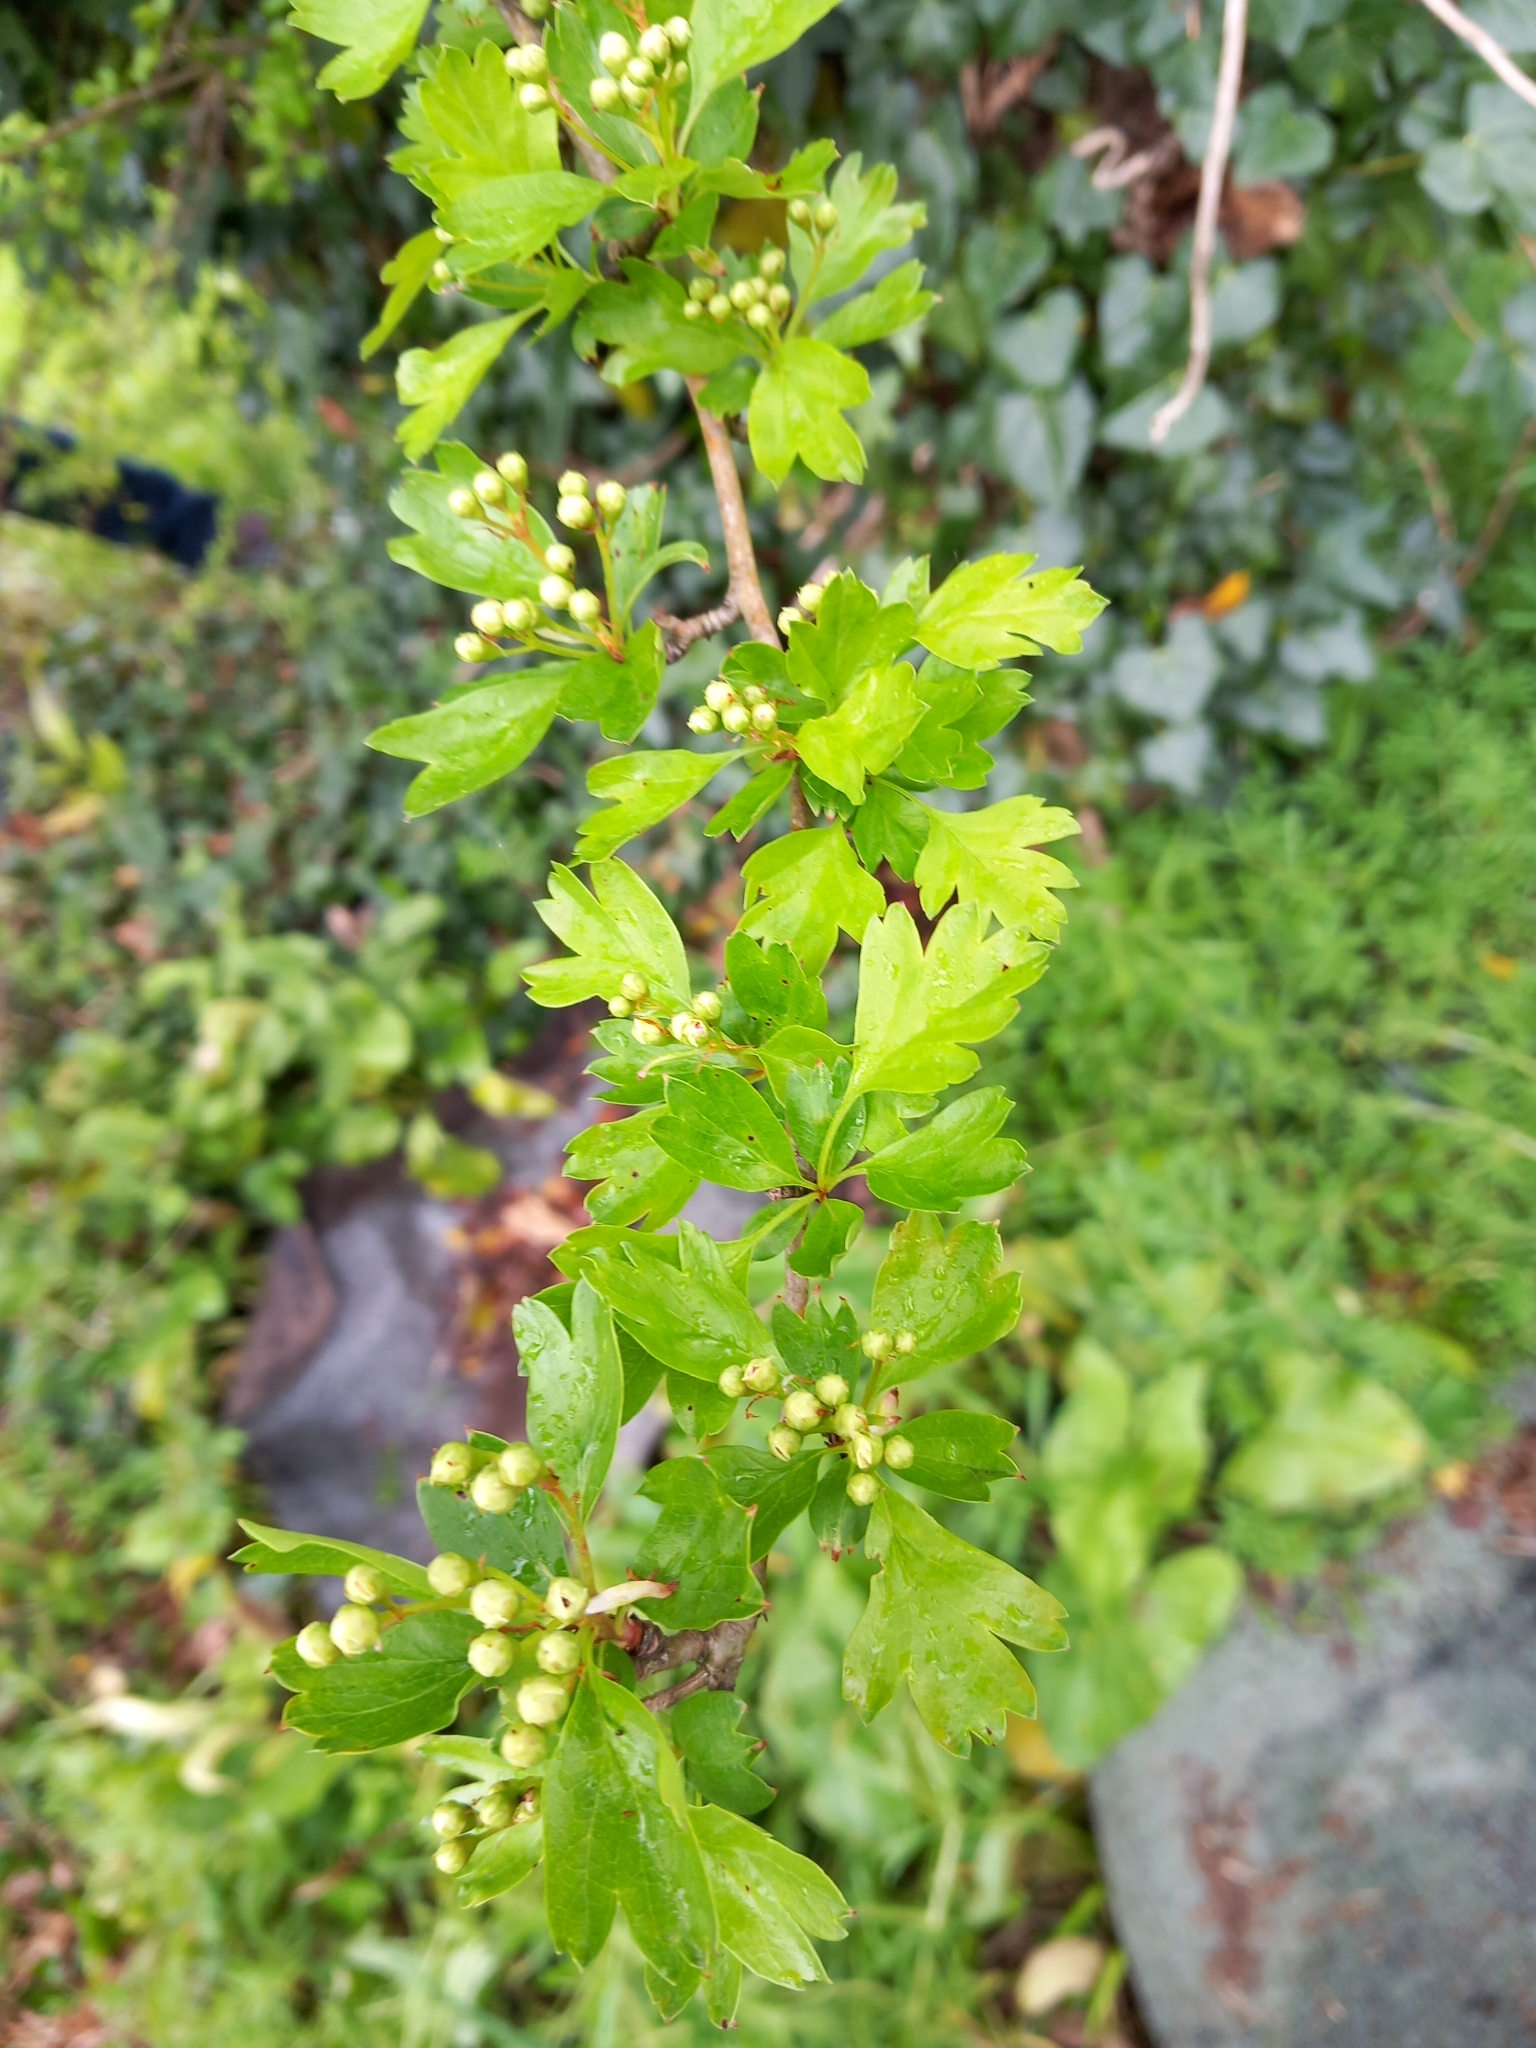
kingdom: Plantae
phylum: Tracheophyta
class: Magnoliopsida
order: Rosales
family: Rosaceae
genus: Crataegus
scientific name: Crataegus monogyna
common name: Hawthorn
